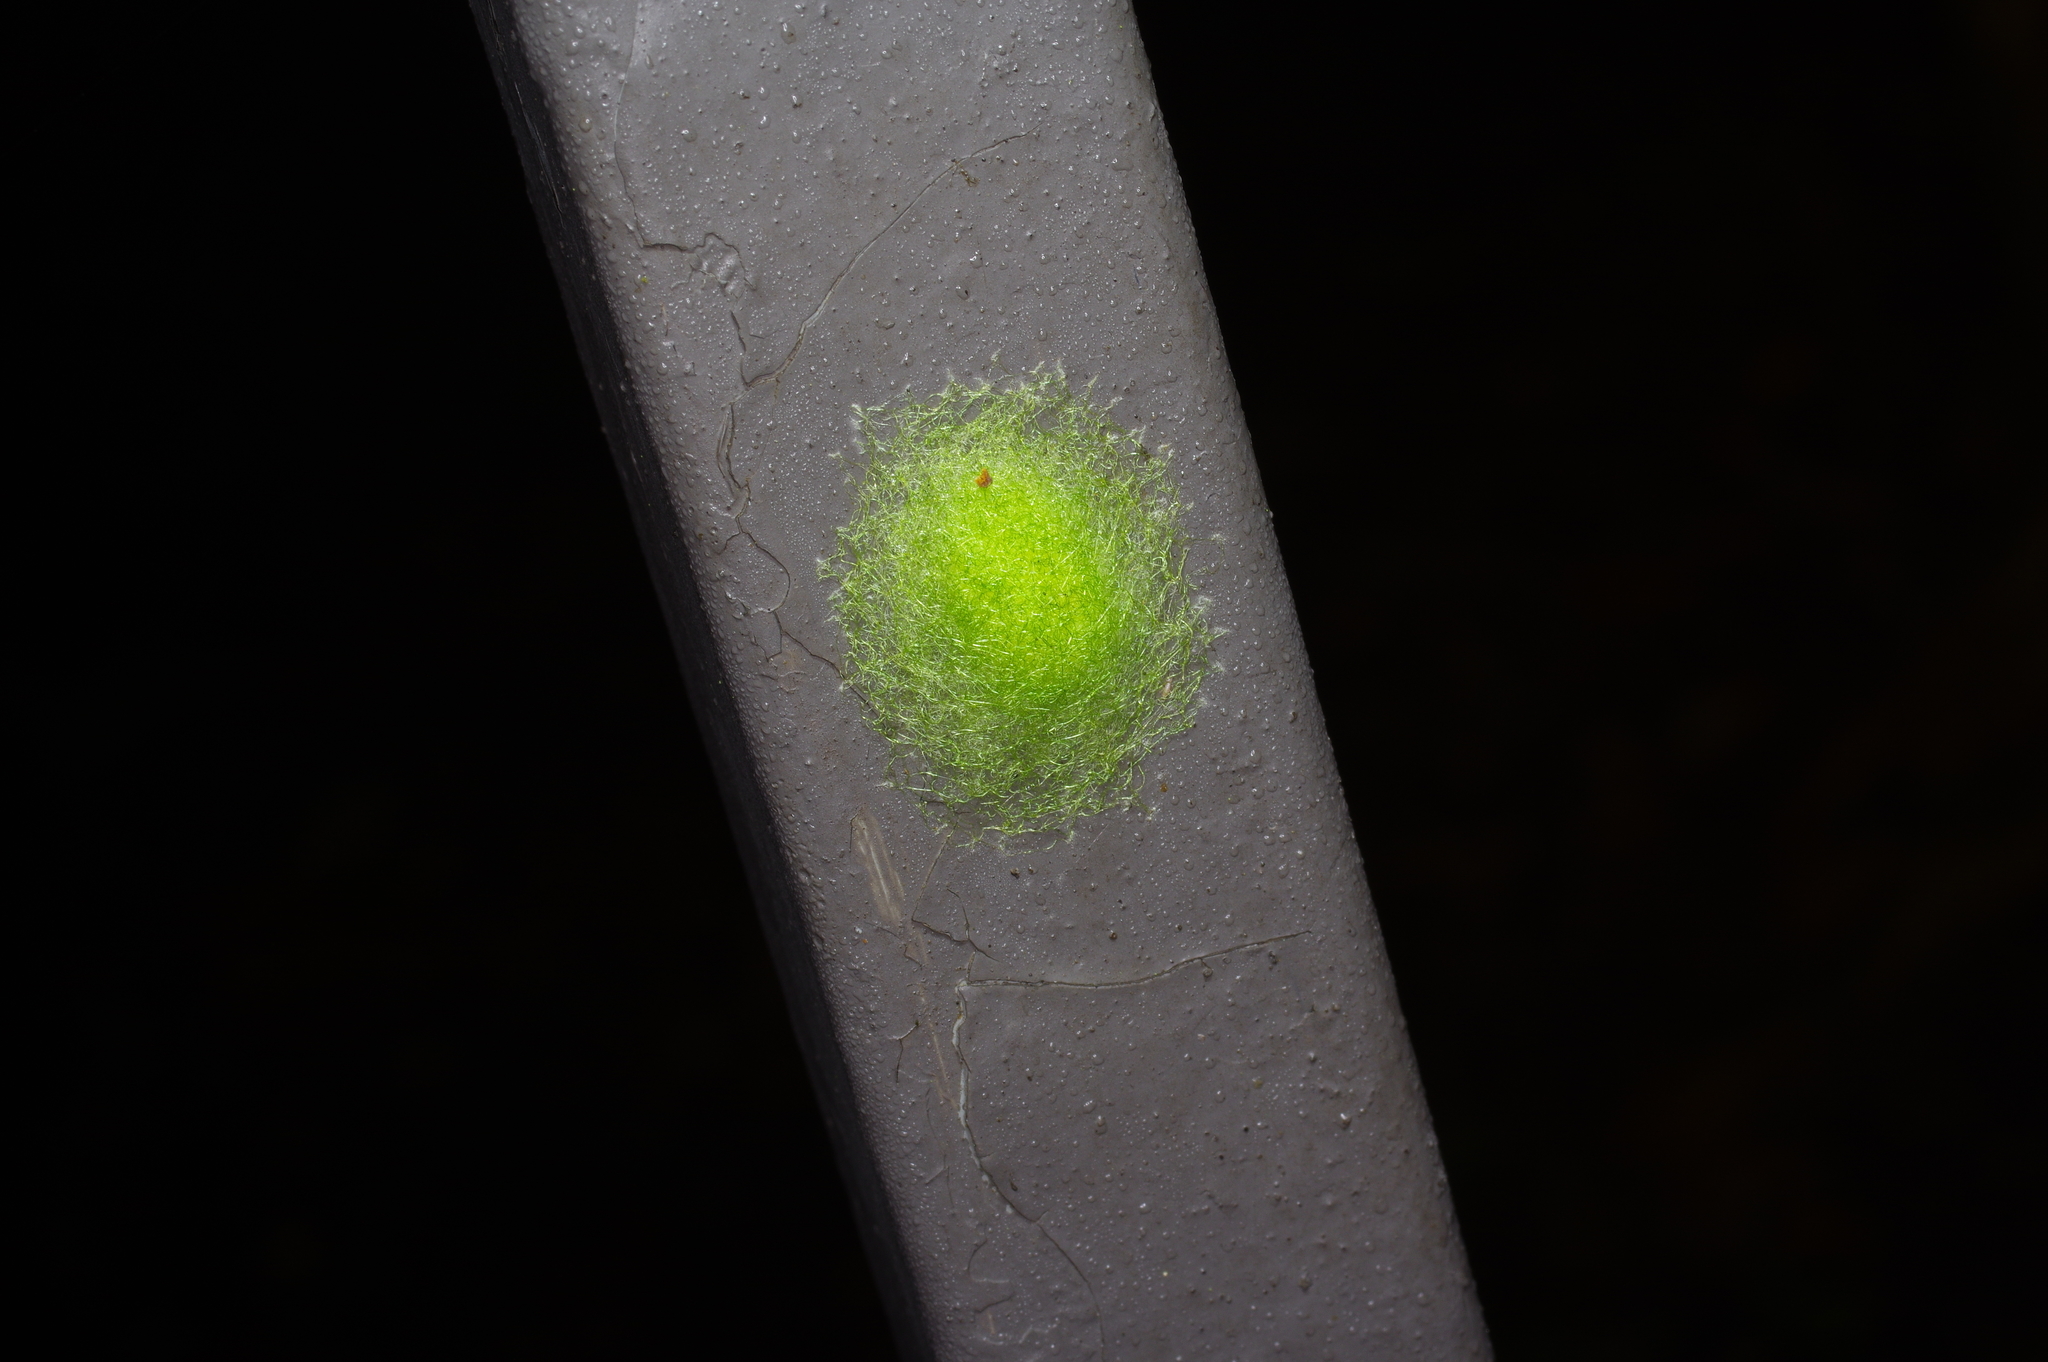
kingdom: Animalia
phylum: Arthropoda
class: Arachnida
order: Araneae
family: Araneidae
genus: Gasteracantha
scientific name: Gasteracantha cancriformis
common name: Orb weavers
